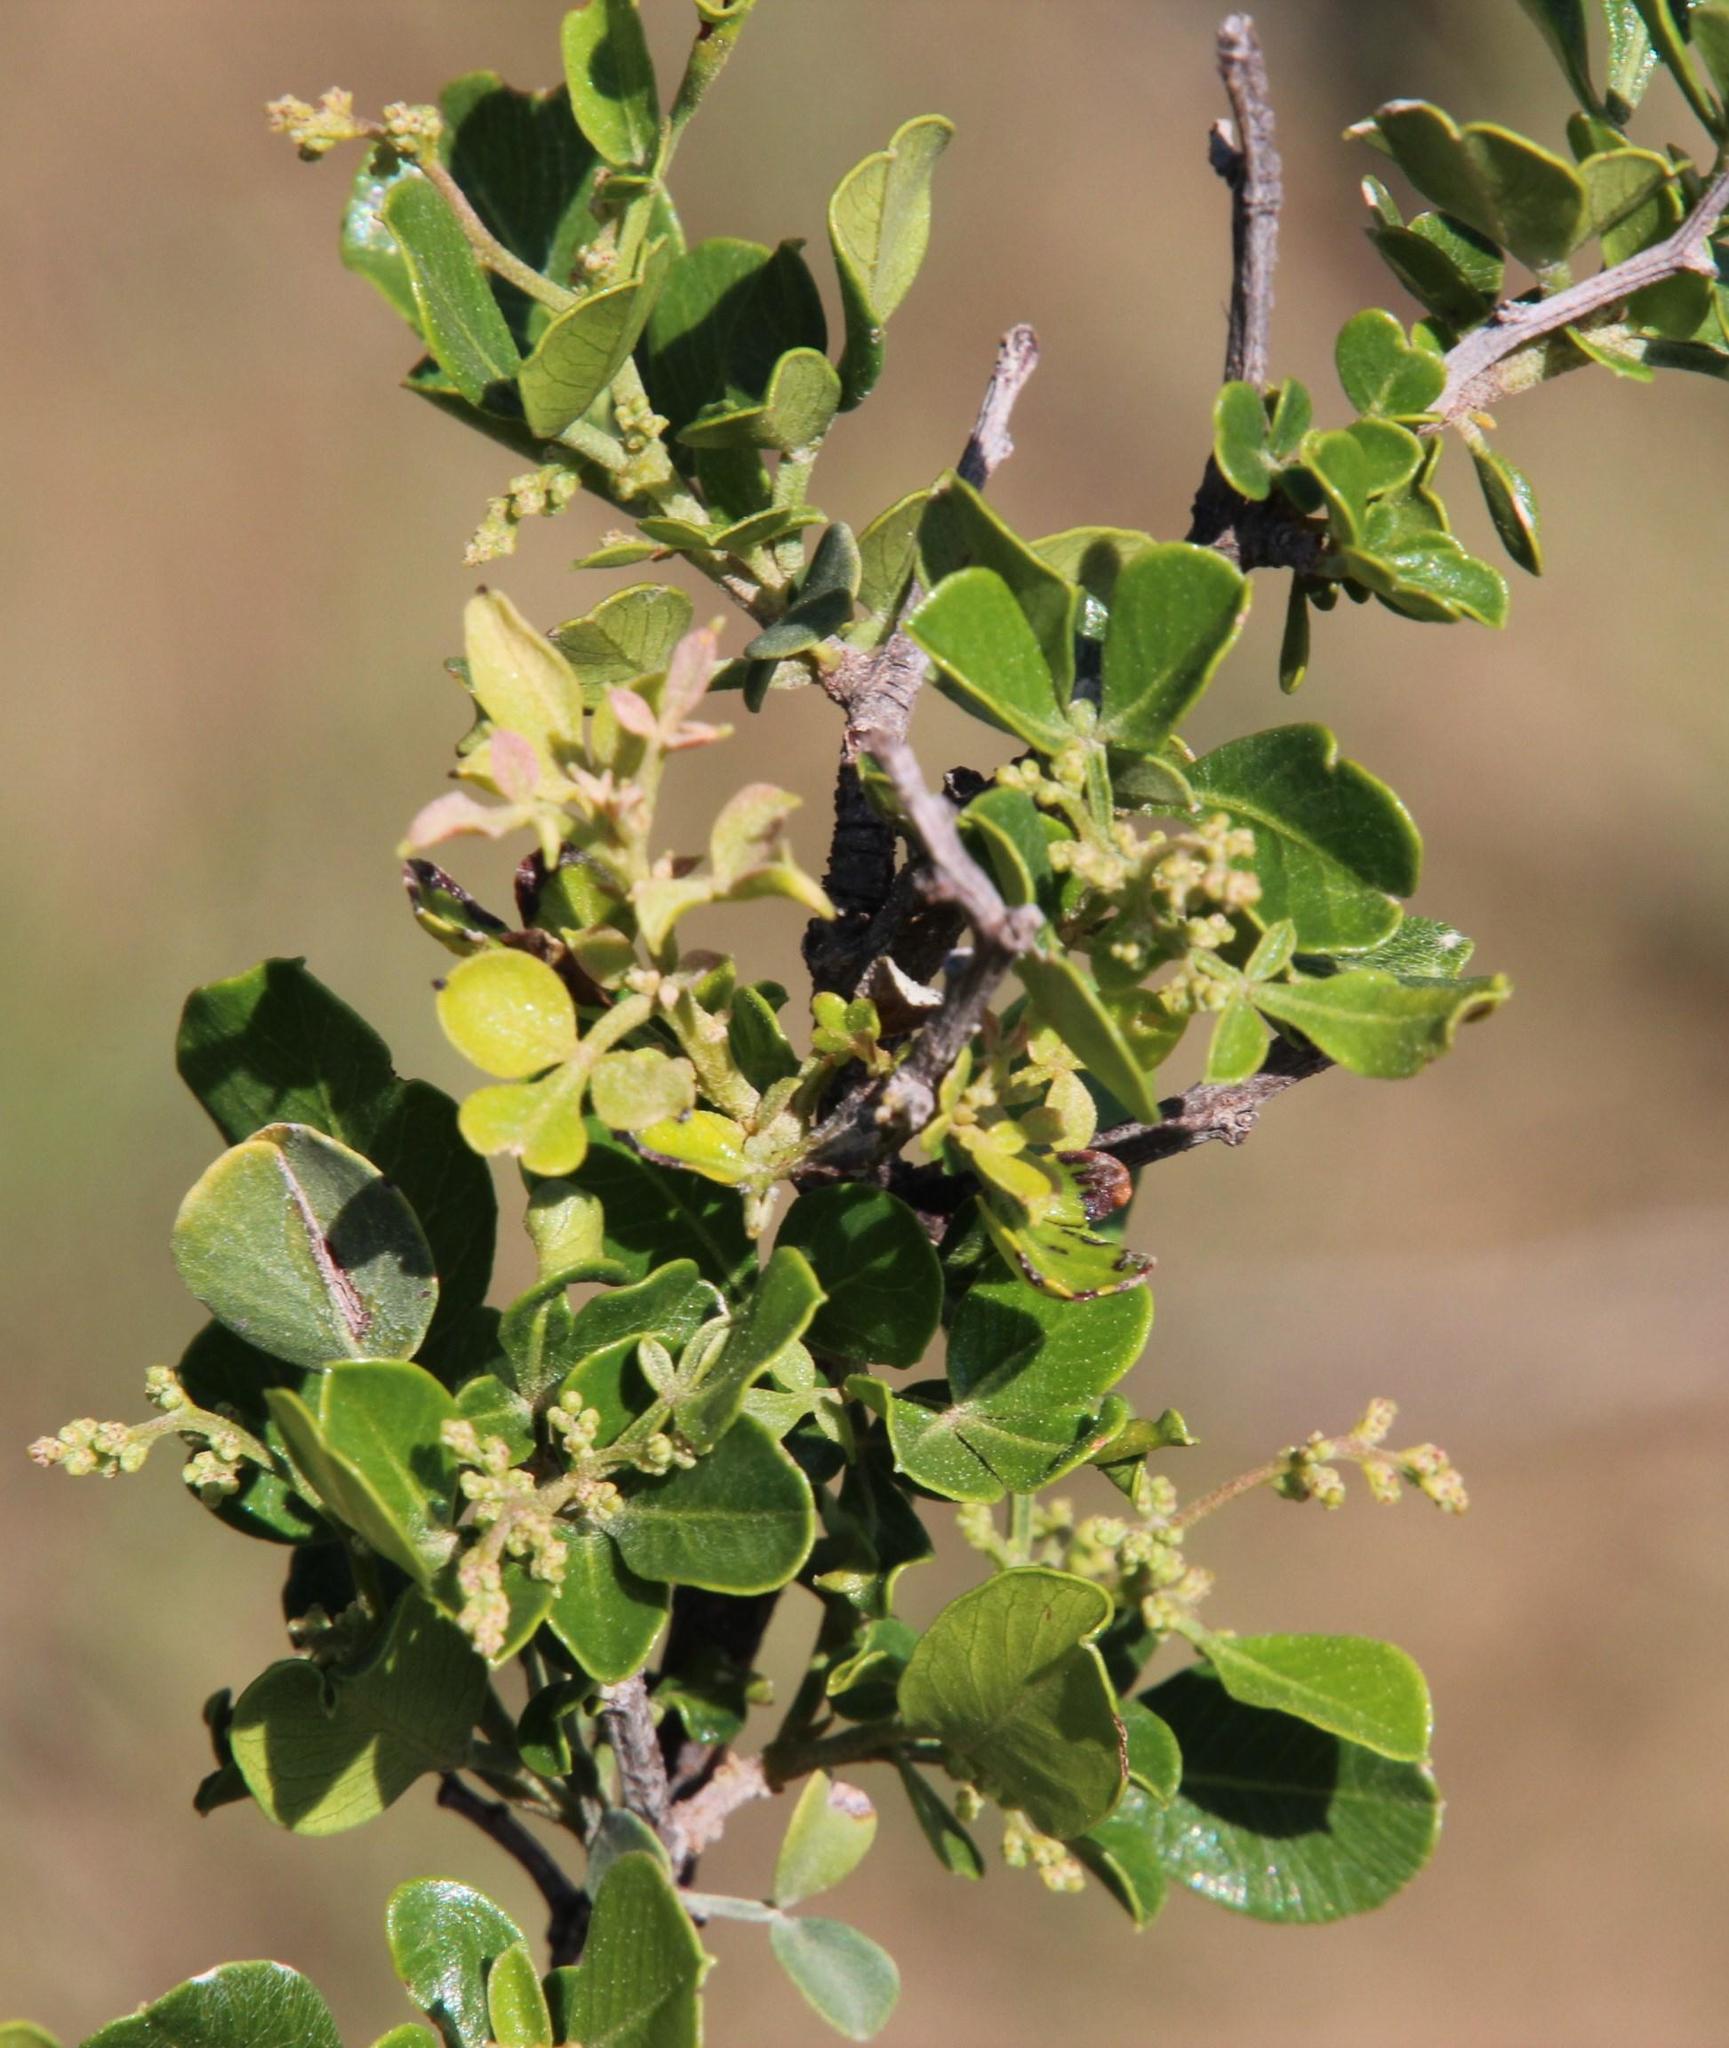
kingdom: Plantae
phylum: Tracheophyta
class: Magnoliopsida
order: Sapindales
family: Anacardiaceae
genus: Searsia
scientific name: Searsia burchellii
